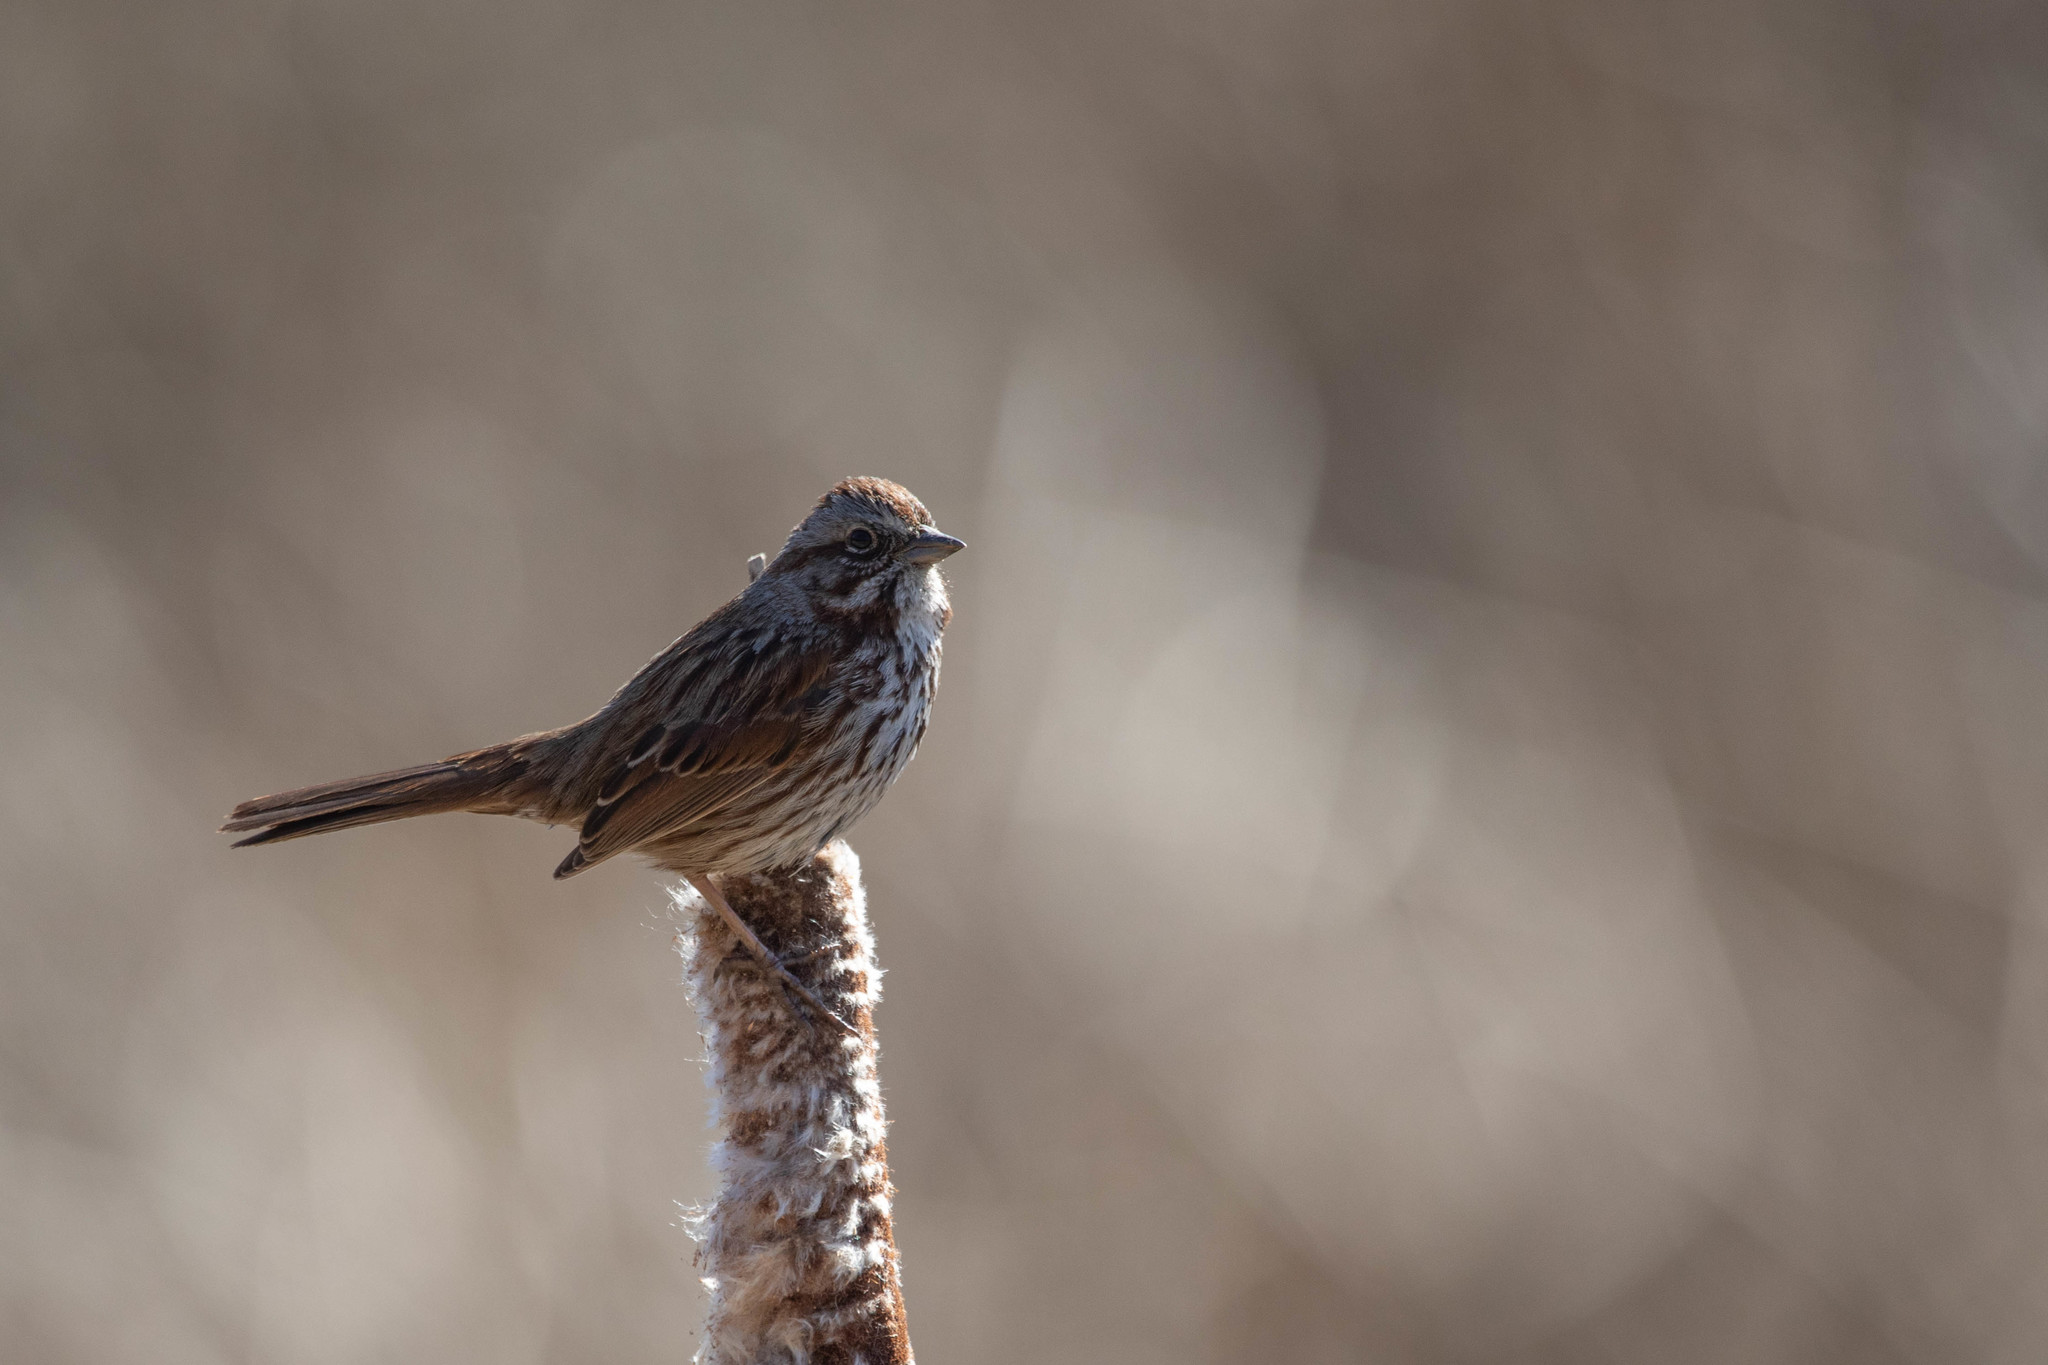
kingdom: Animalia
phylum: Chordata
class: Aves
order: Passeriformes
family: Passerellidae
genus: Melospiza
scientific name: Melospiza melodia
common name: Song sparrow
